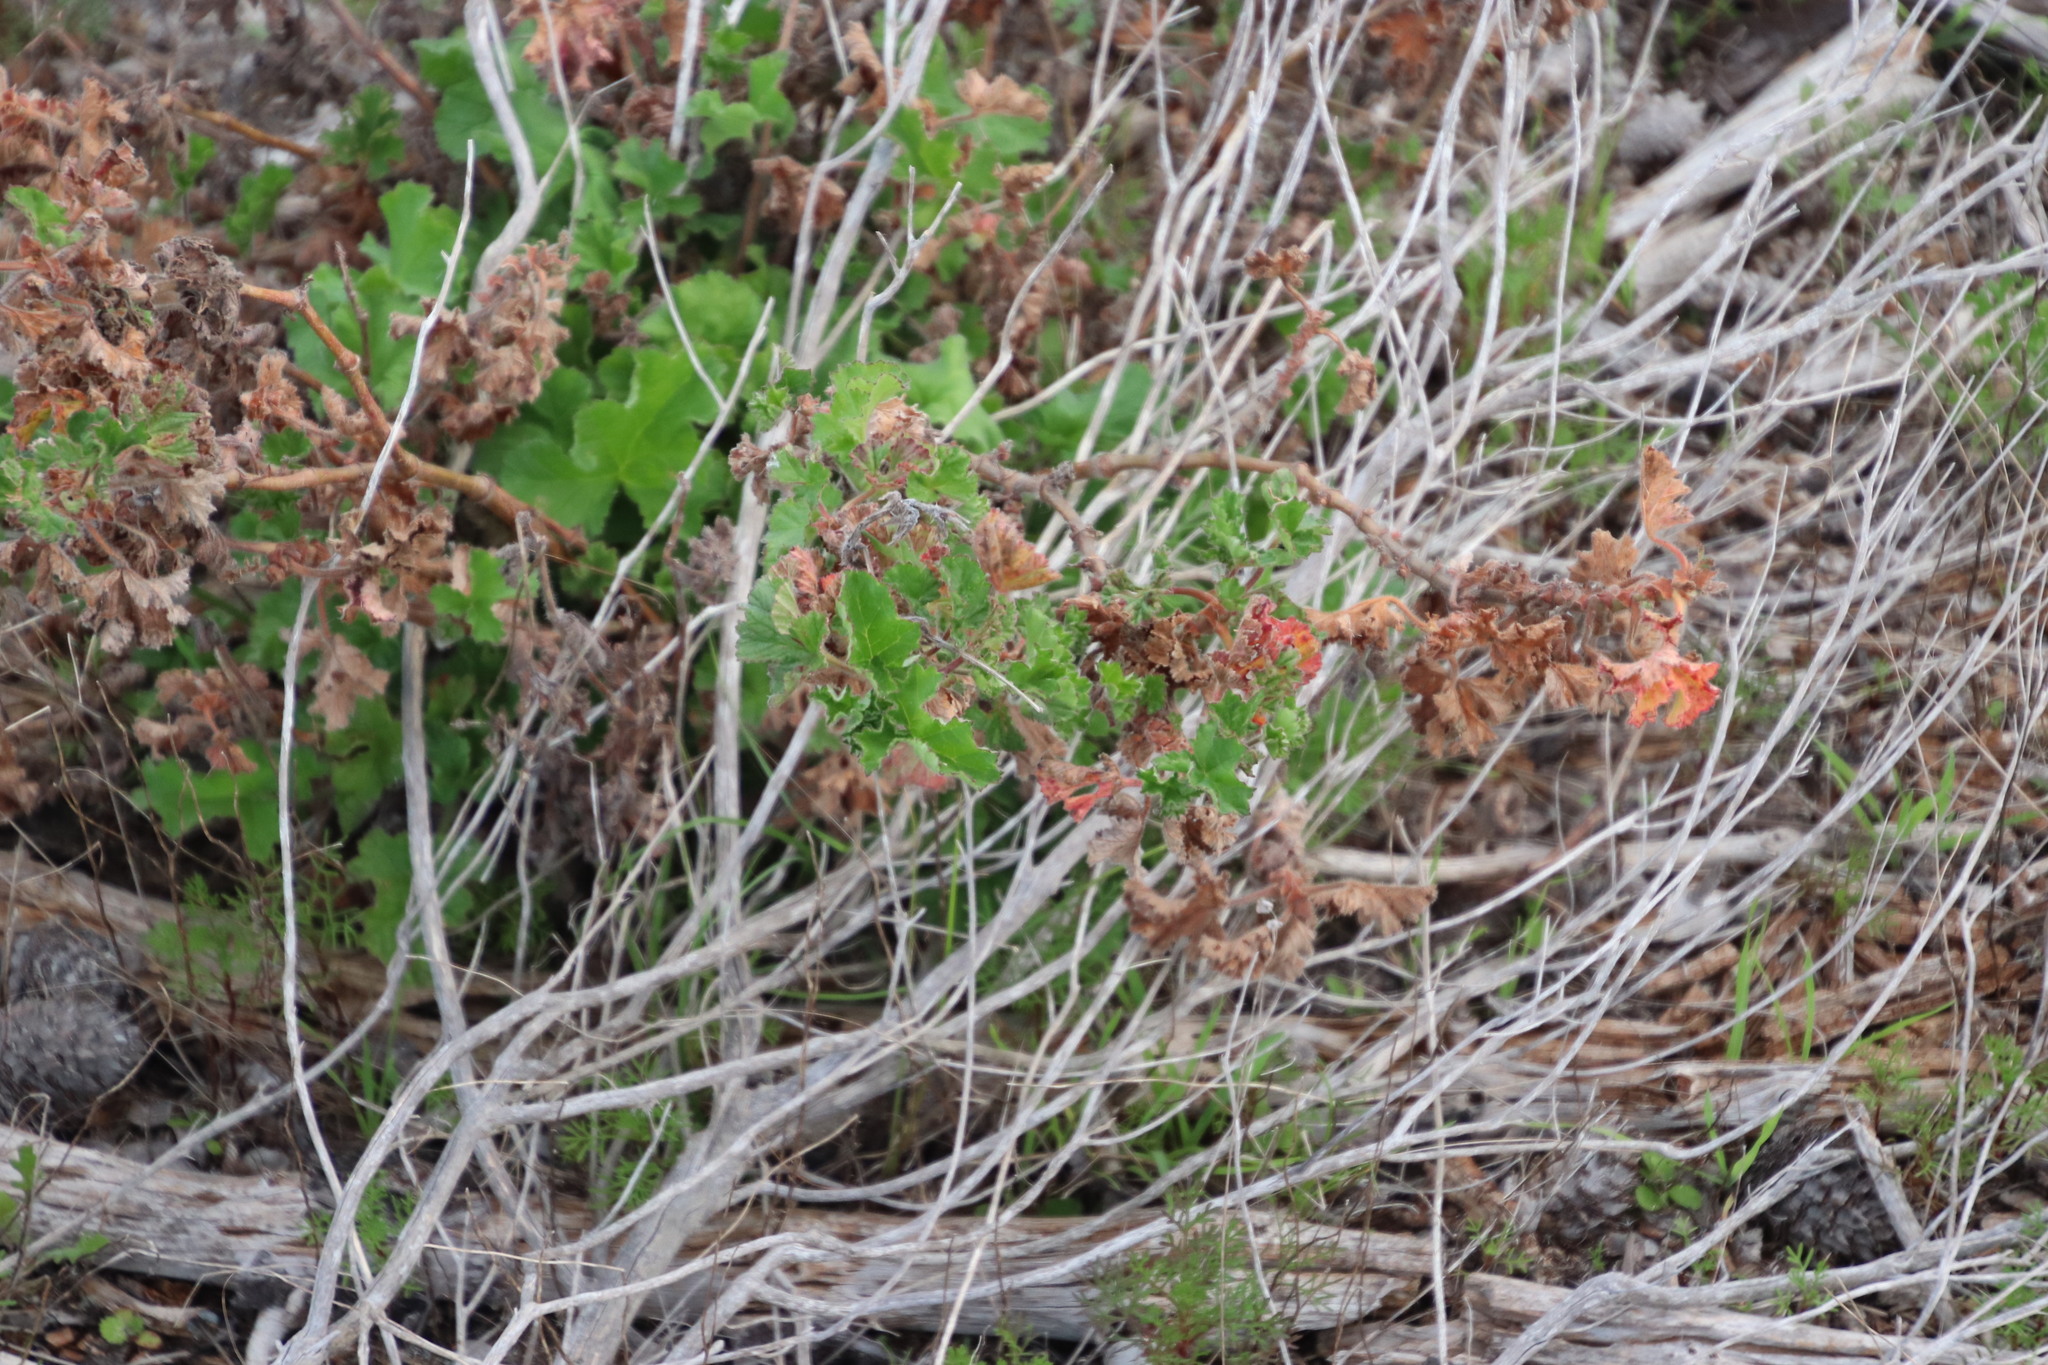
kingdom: Plantae
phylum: Tracheophyta
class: Magnoliopsida
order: Geraniales
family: Geraniaceae
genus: Pelargonium
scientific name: Pelargonium capitatum
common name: Rose scented geranium
